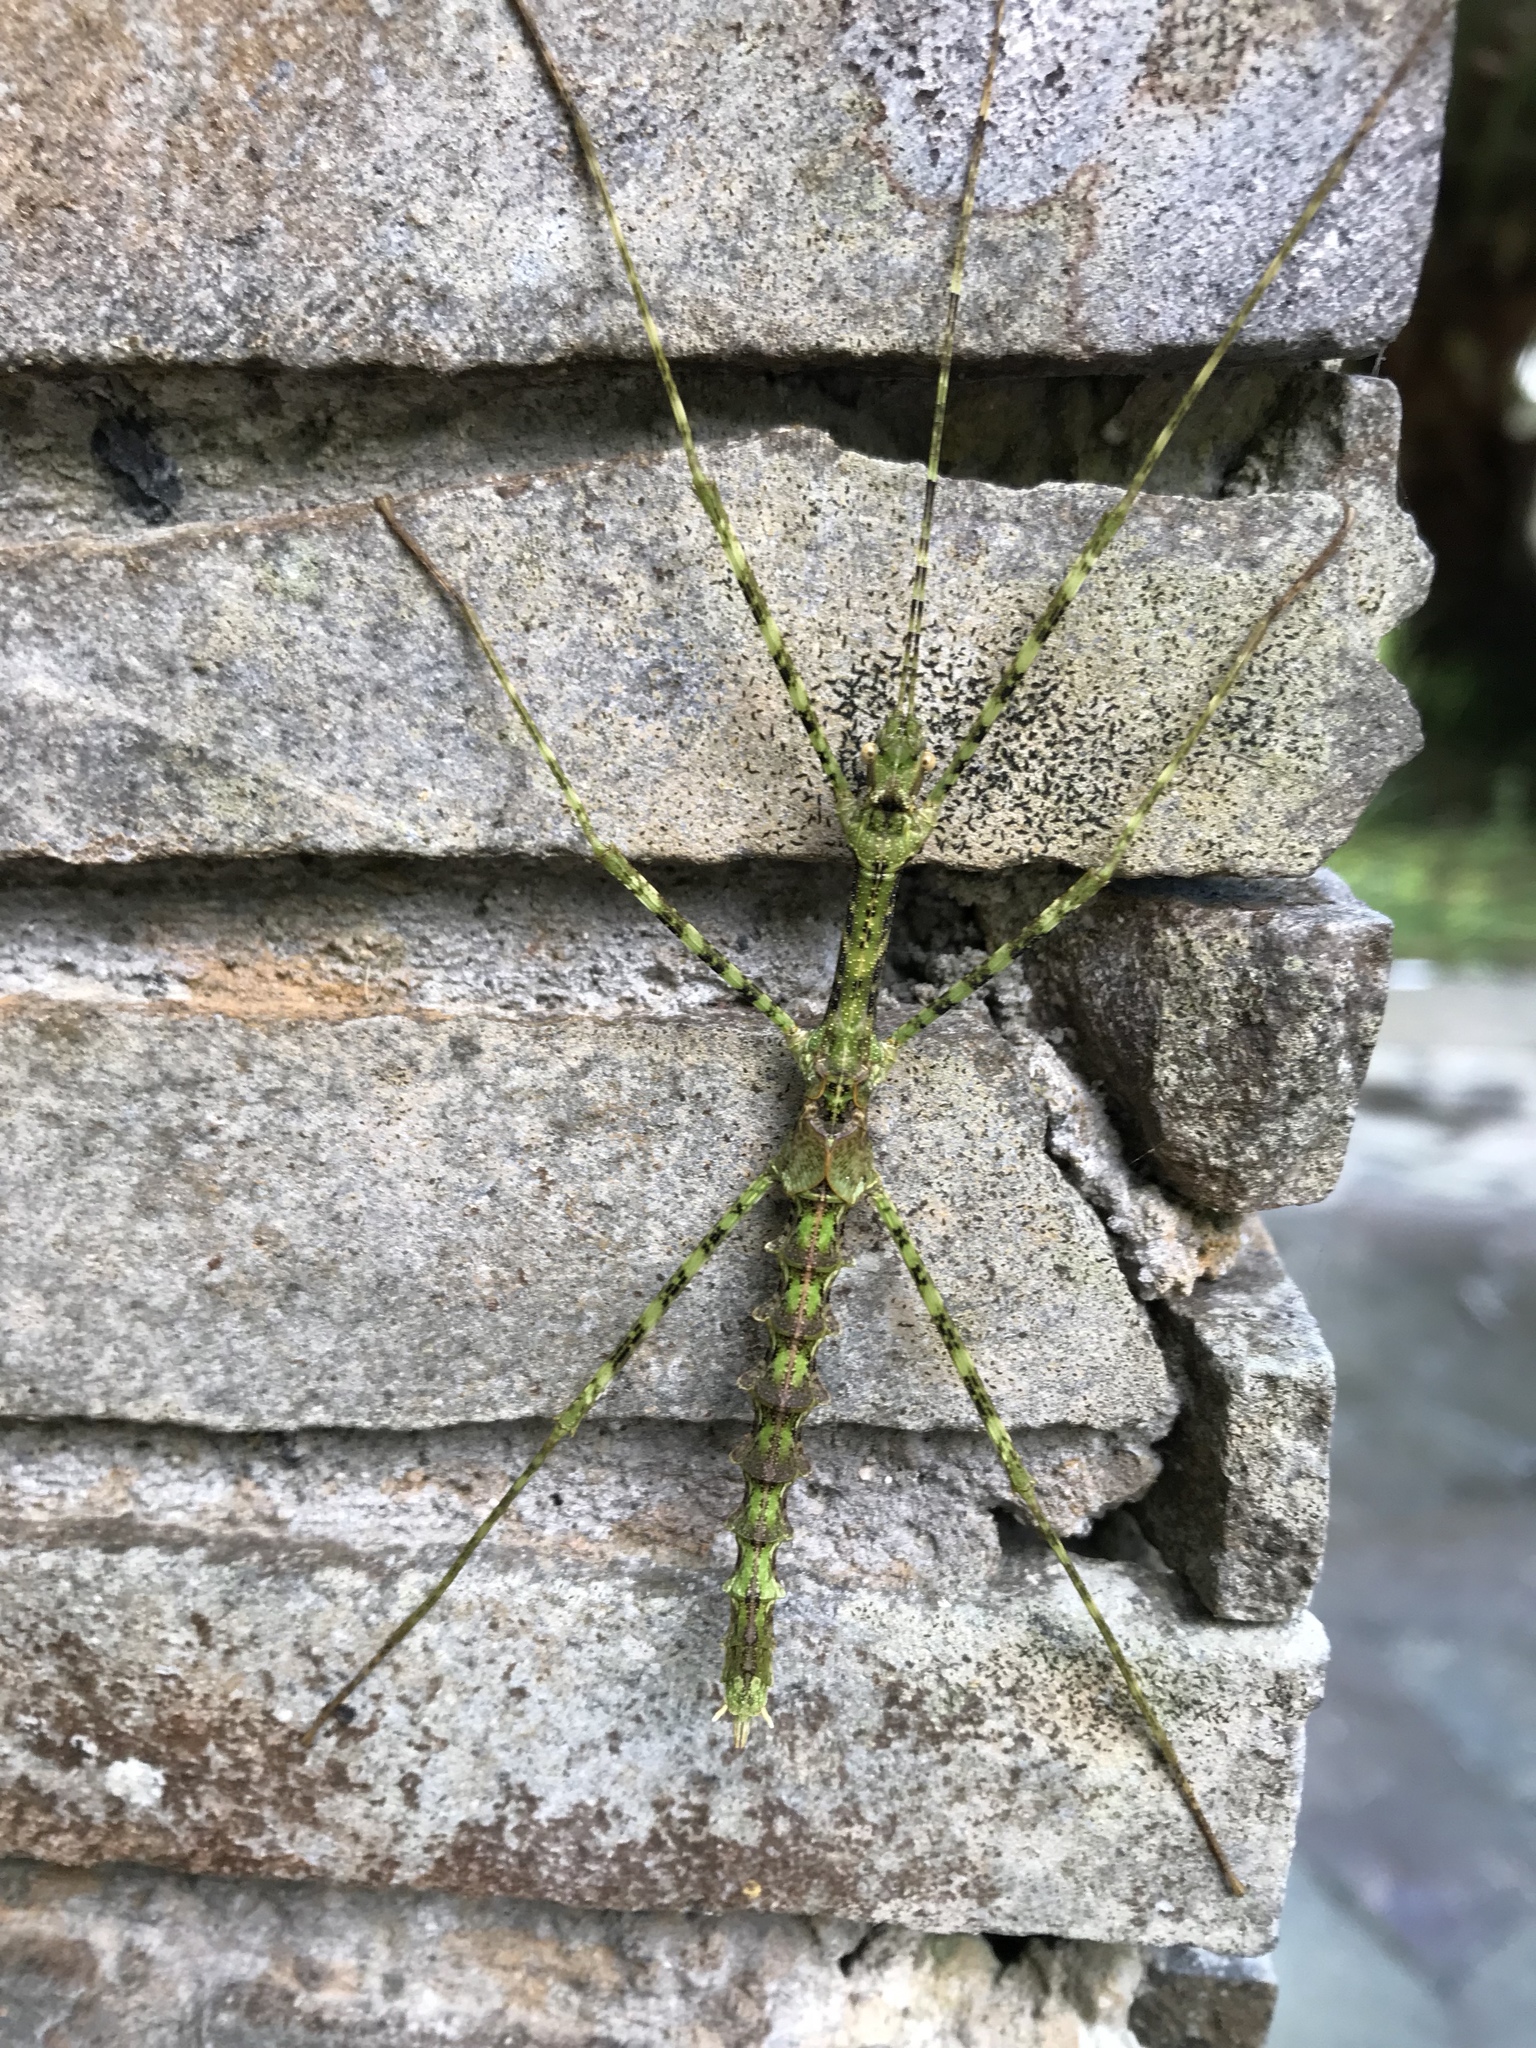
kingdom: Animalia
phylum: Arthropoda
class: Insecta
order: Phasmida
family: Lonchodidae
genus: Pseudodiacantha
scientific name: Pseudodiacantha macklottii
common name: Javanese lichen stick insect
